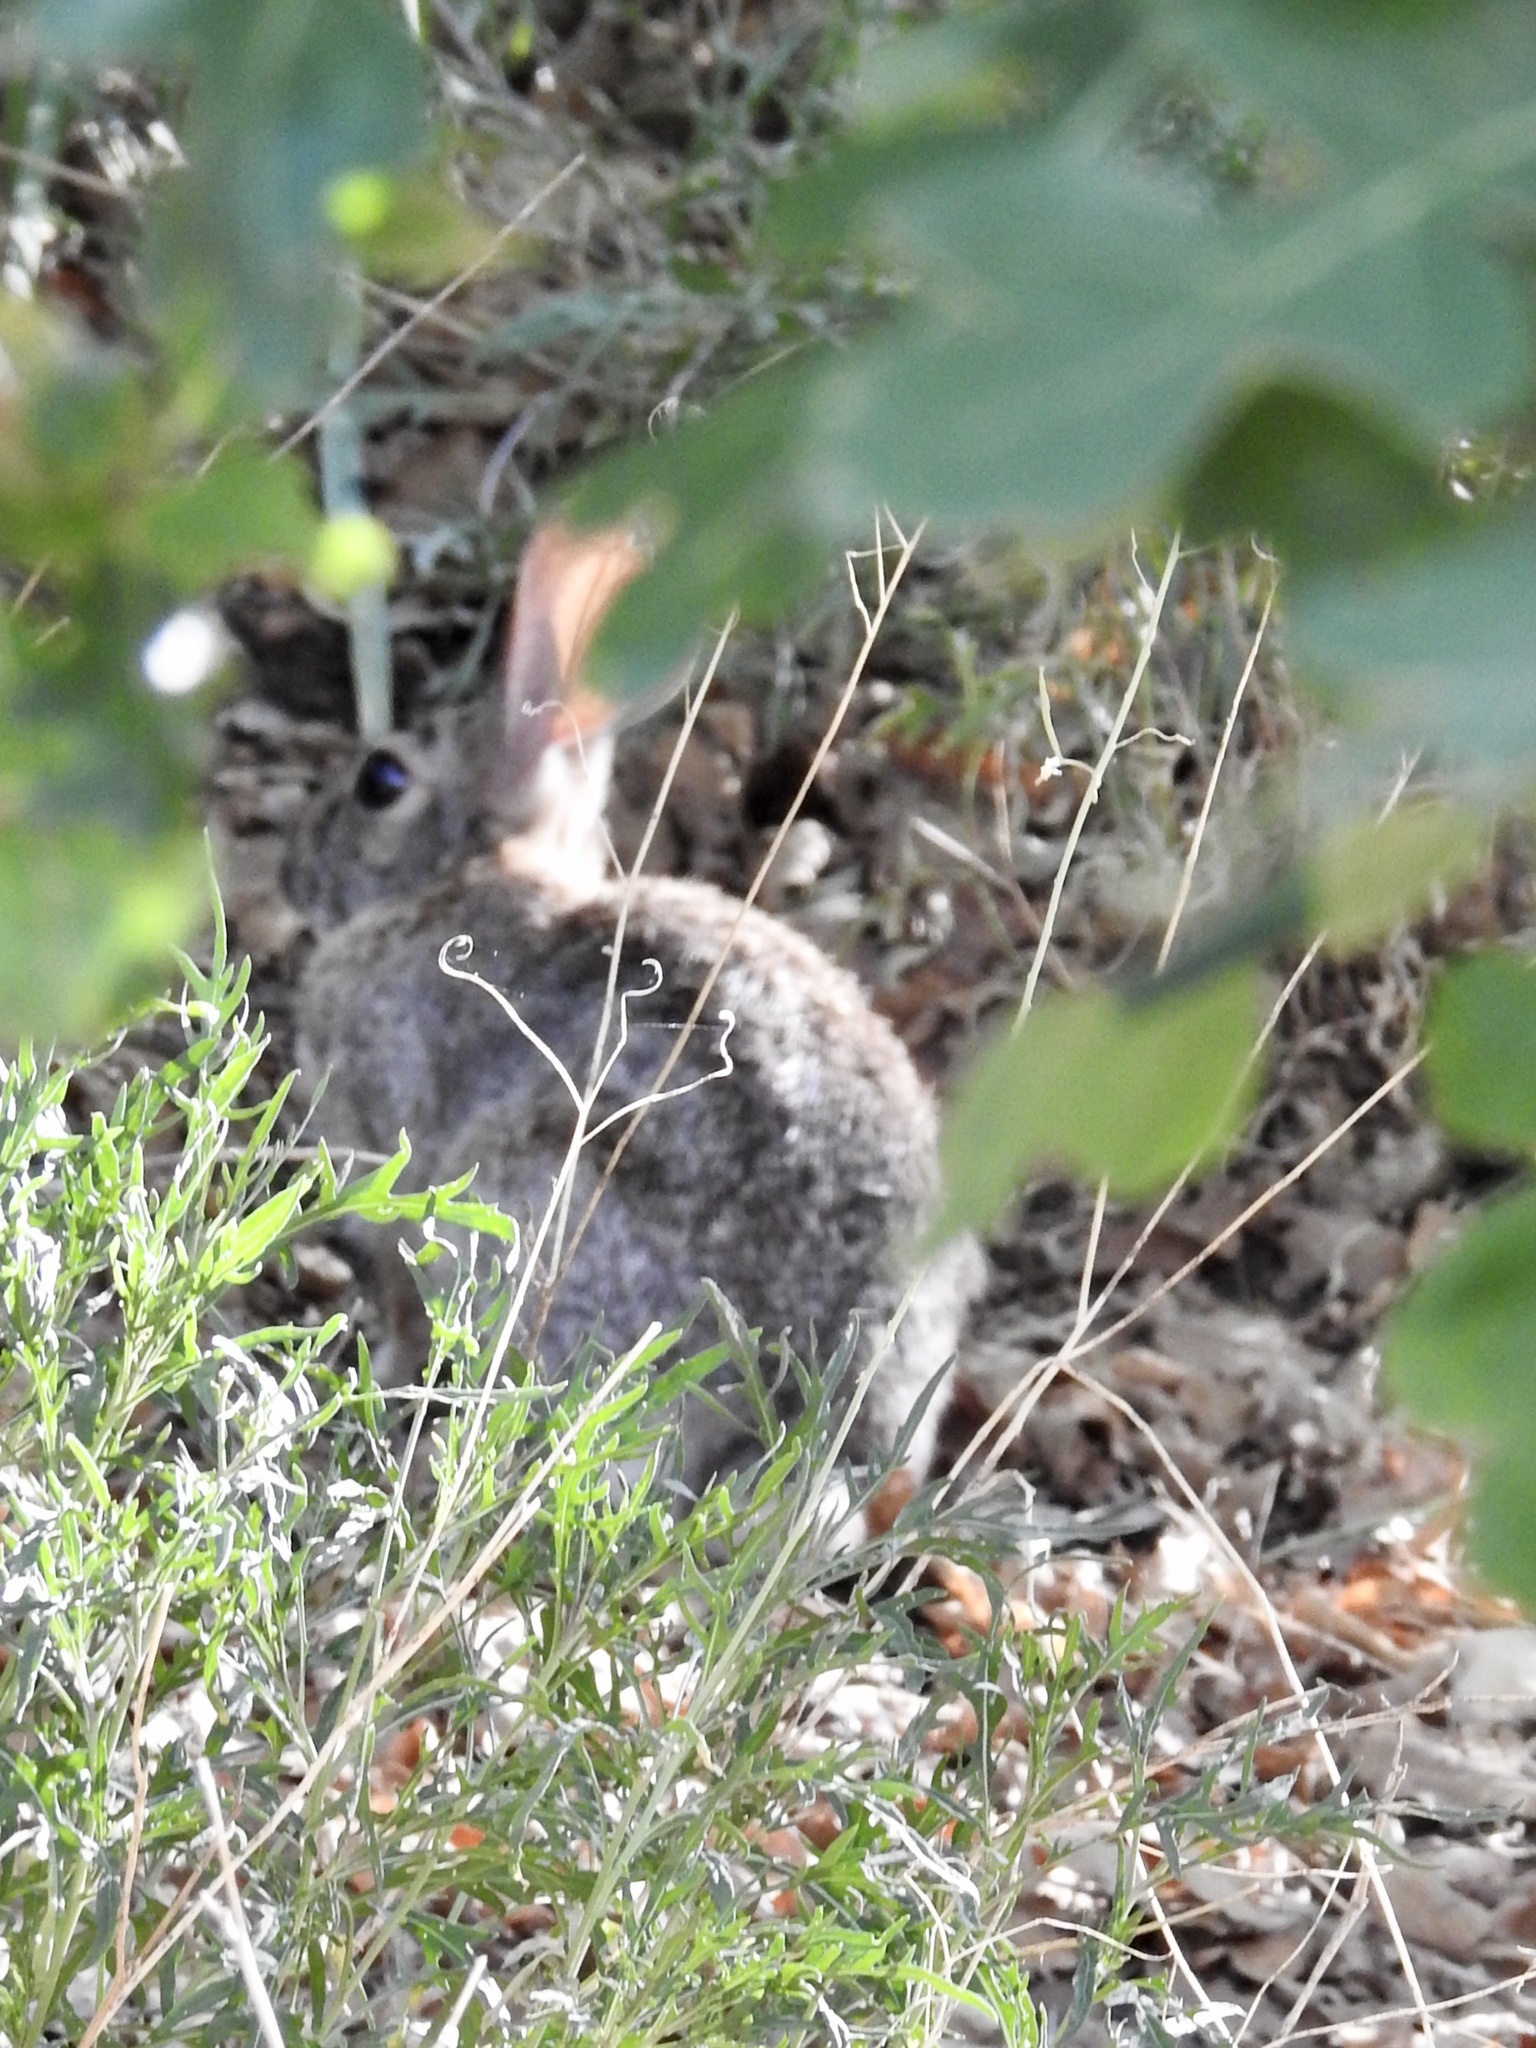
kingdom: Animalia
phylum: Chordata
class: Mammalia
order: Lagomorpha
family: Leporidae
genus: Sylvilagus
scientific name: Sylvilagus
